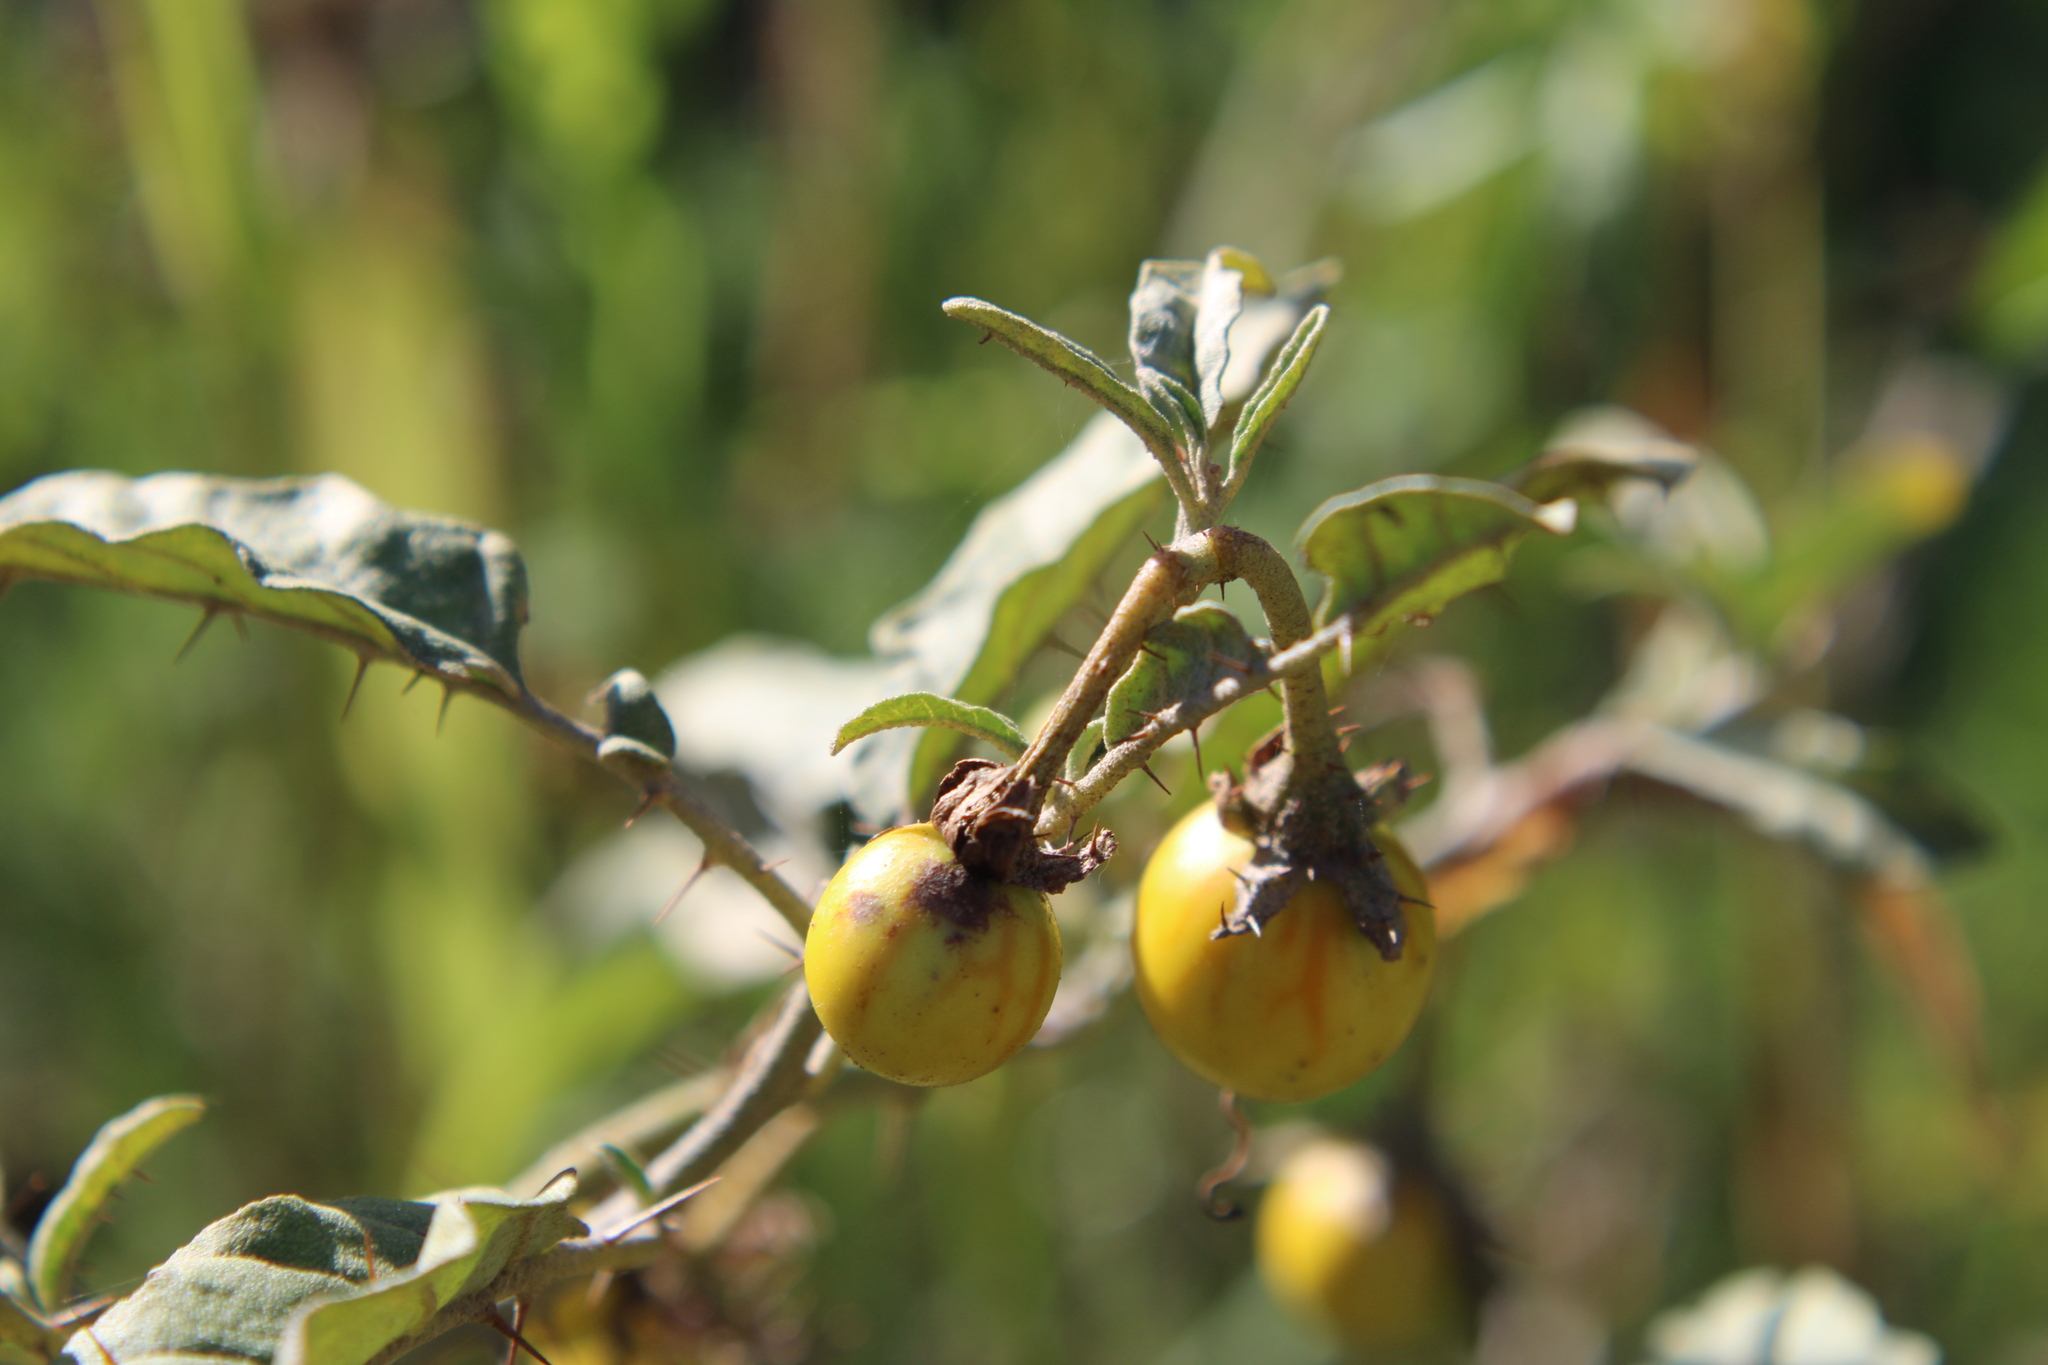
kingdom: Plantae
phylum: Tracheophyta
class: Magnoliopsida
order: Solanales
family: Solanaceae
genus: Solanum
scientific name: Solanum elaeagnifolium
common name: Silverleaf nightshade
